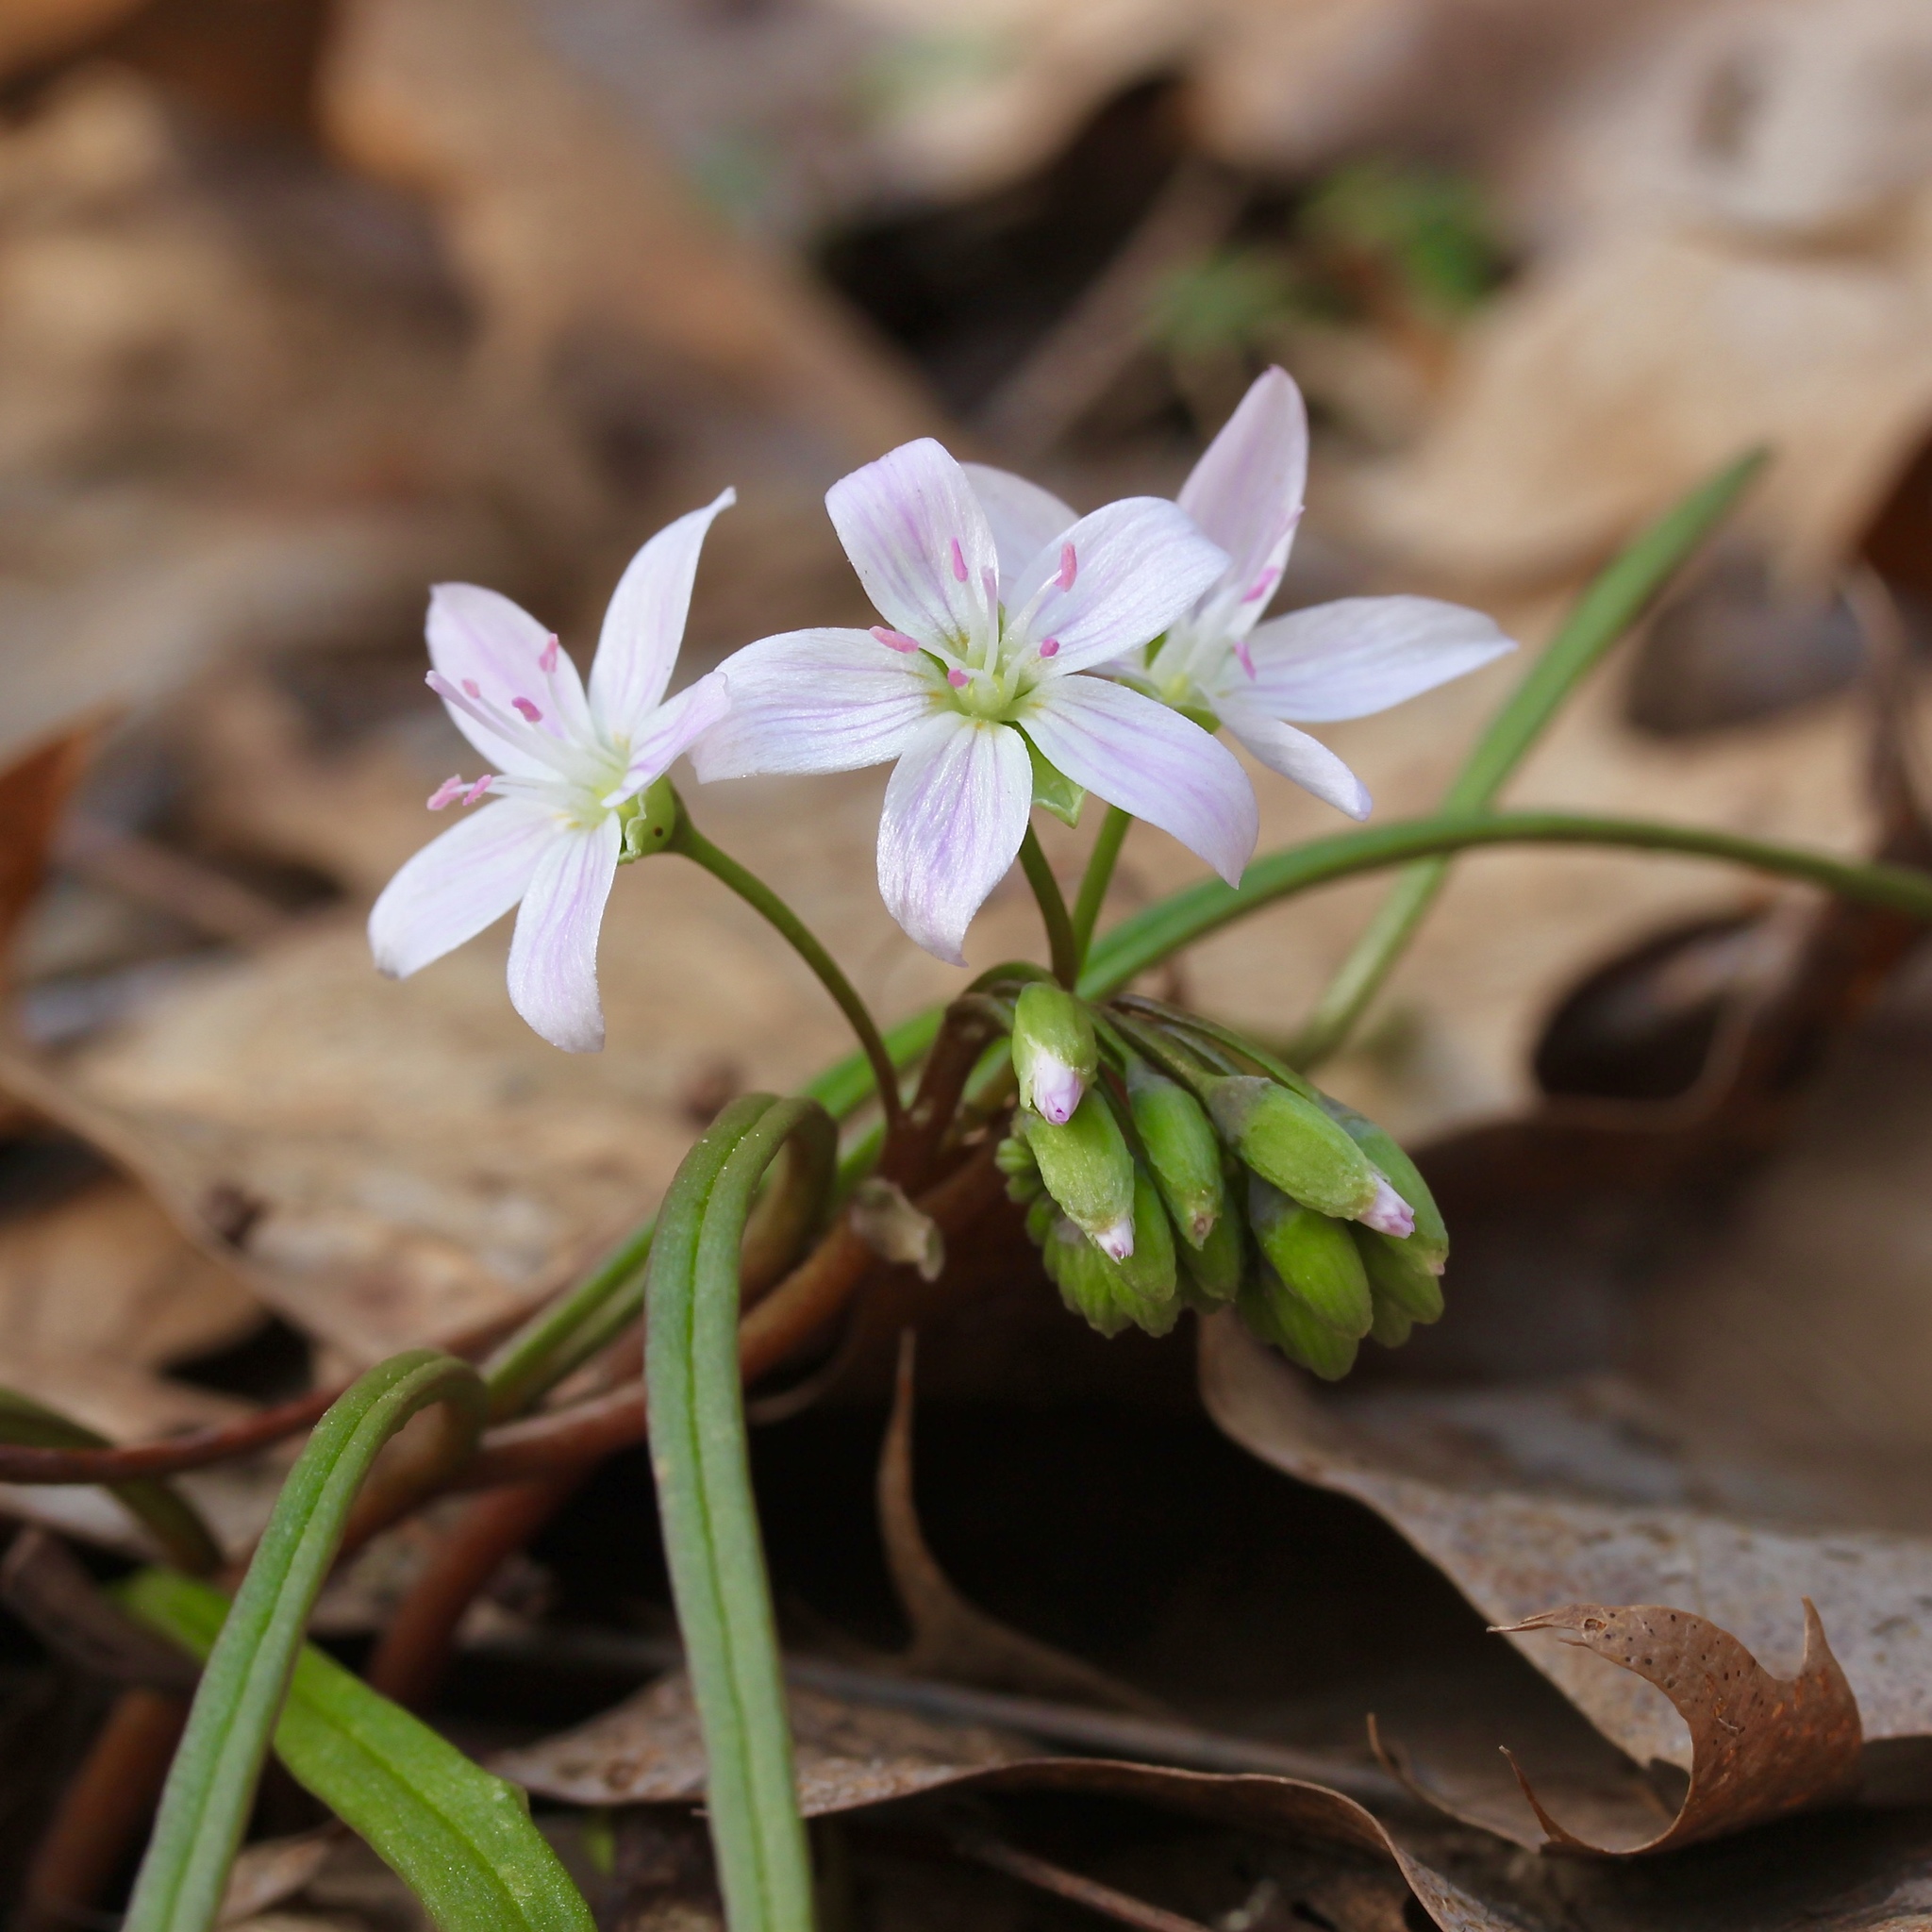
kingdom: Plantae
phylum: Tracheophyta
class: Magnoliopsida
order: Caryophyllales
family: Montiaceae
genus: Claytonia
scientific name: Claytonia virginica
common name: Virginia springbeauty
